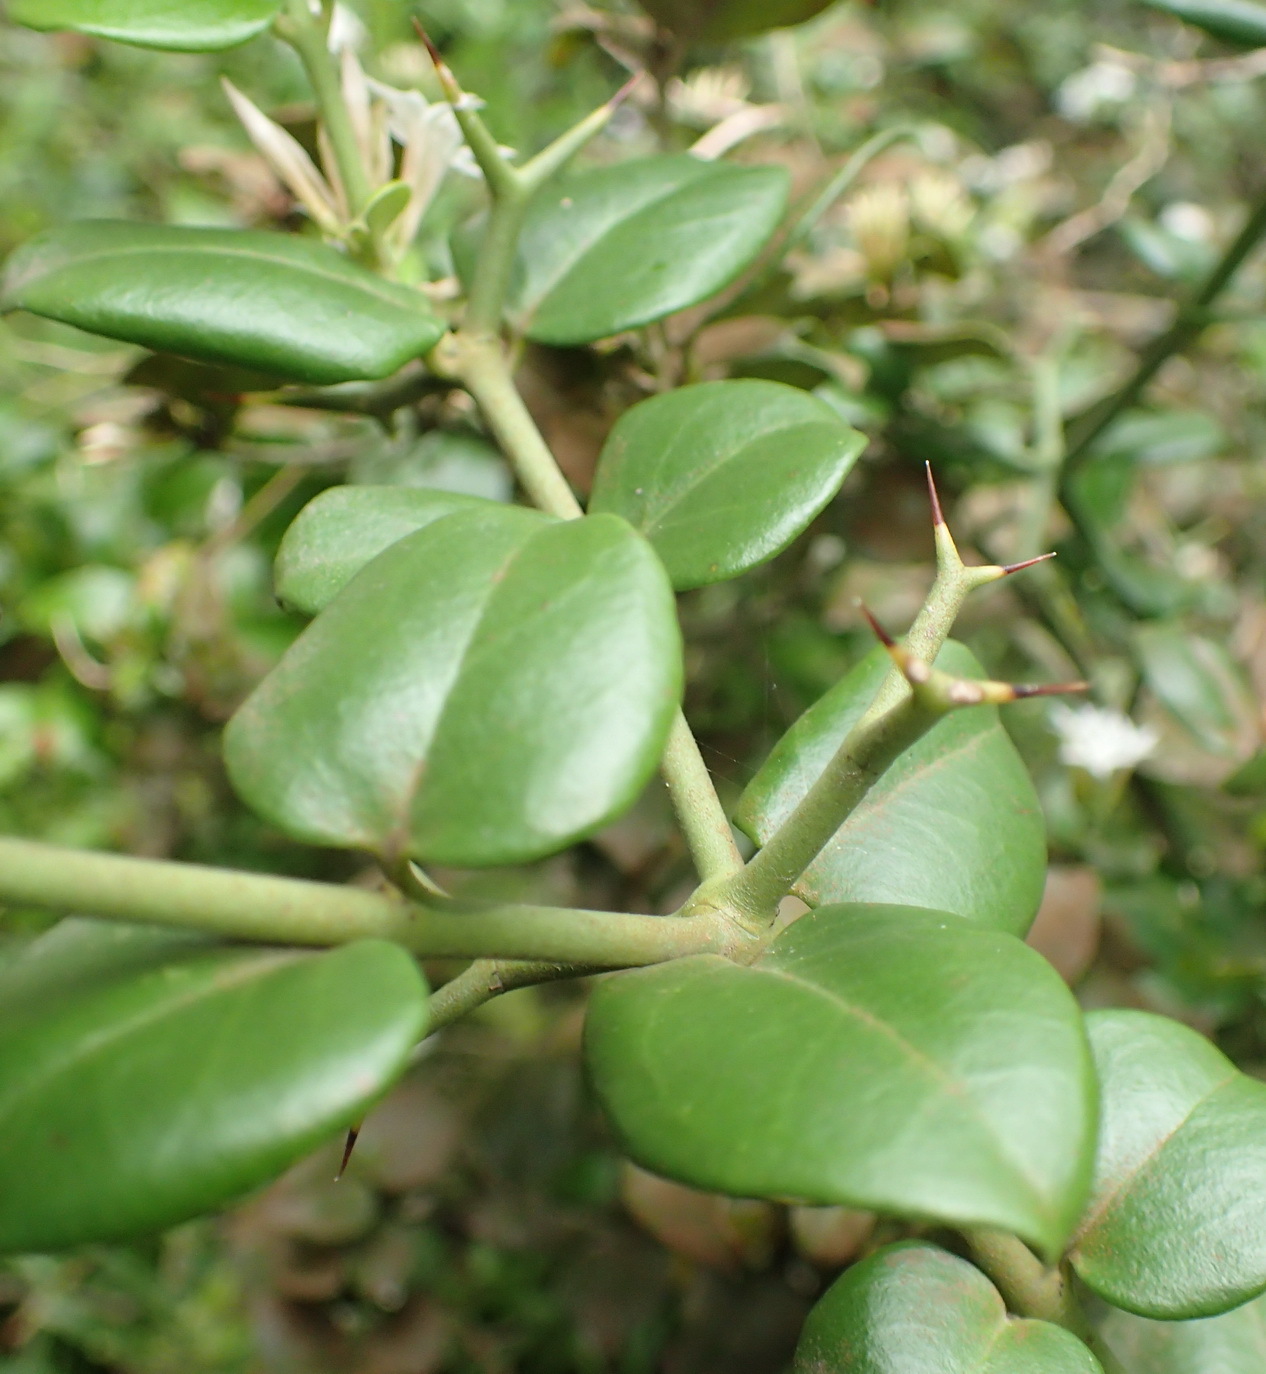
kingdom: Plantae
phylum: Tracheophyta
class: Magnoliopsida
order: Gentianales
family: Apocynaceae
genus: Carissa
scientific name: Carissa bispinosa
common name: Forest num-num
